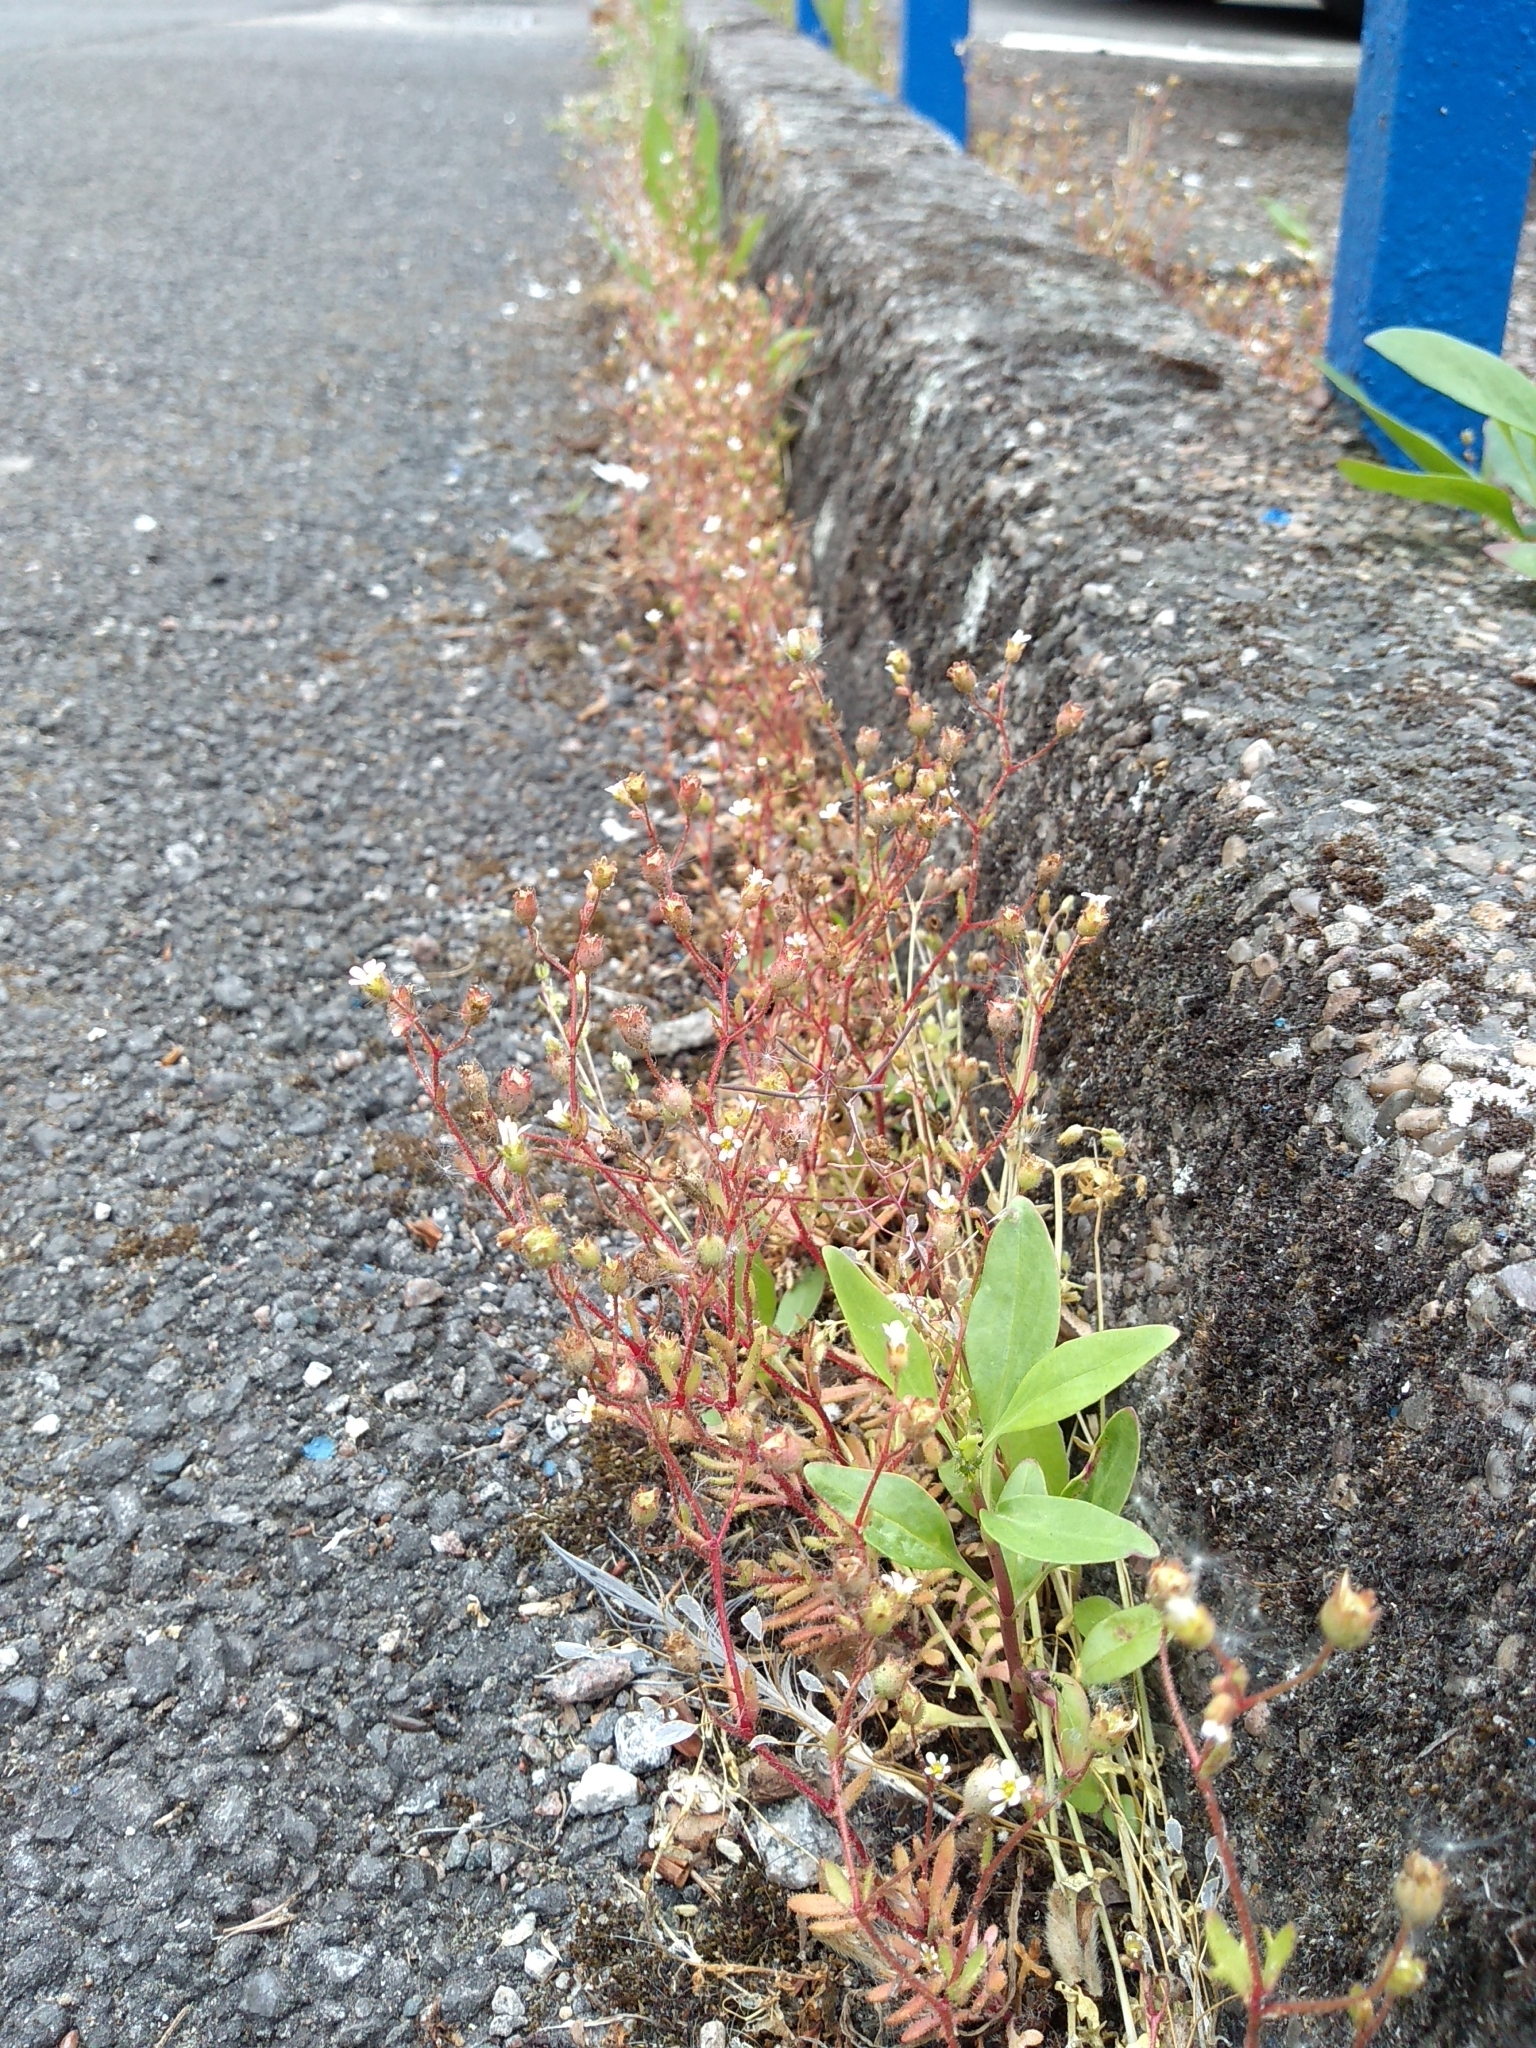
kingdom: Plantae
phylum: Tracheophyta
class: Magnoliopsida
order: Saxifragales
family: Saxifragaceae
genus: Saxifraga
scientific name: Saxifraga tridactylites
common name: Rue-leaved saxifrage
